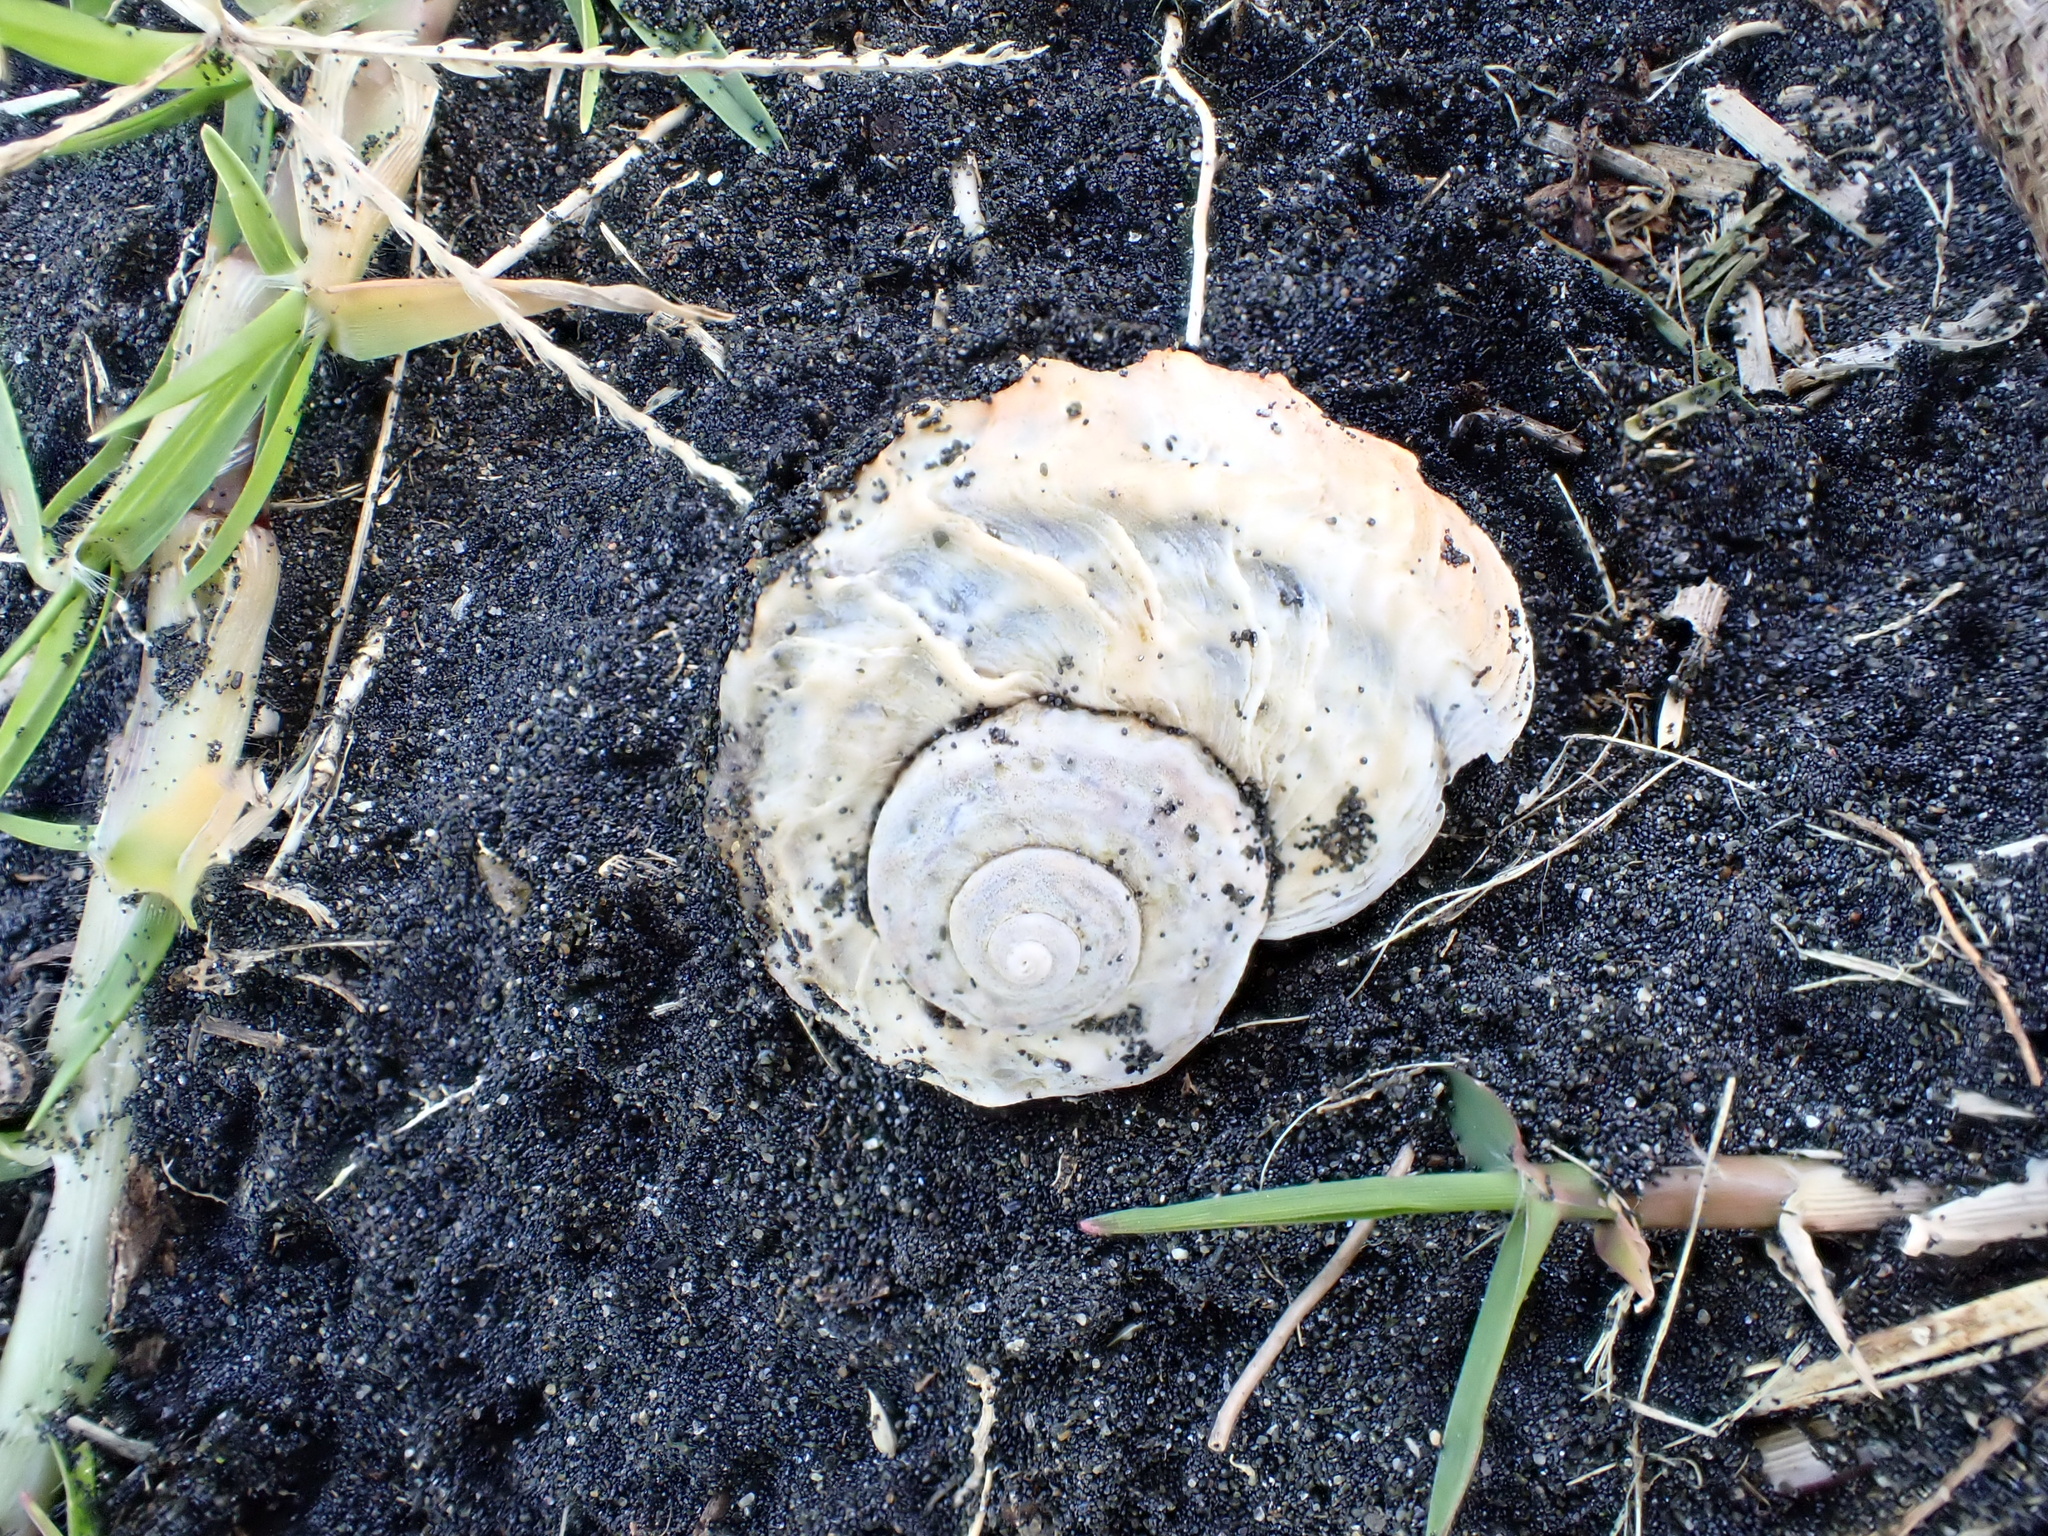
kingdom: Animalia
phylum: Mollusca
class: Gastropoda
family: Amphibolidae
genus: Amphibola
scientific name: Amphibola crenata
